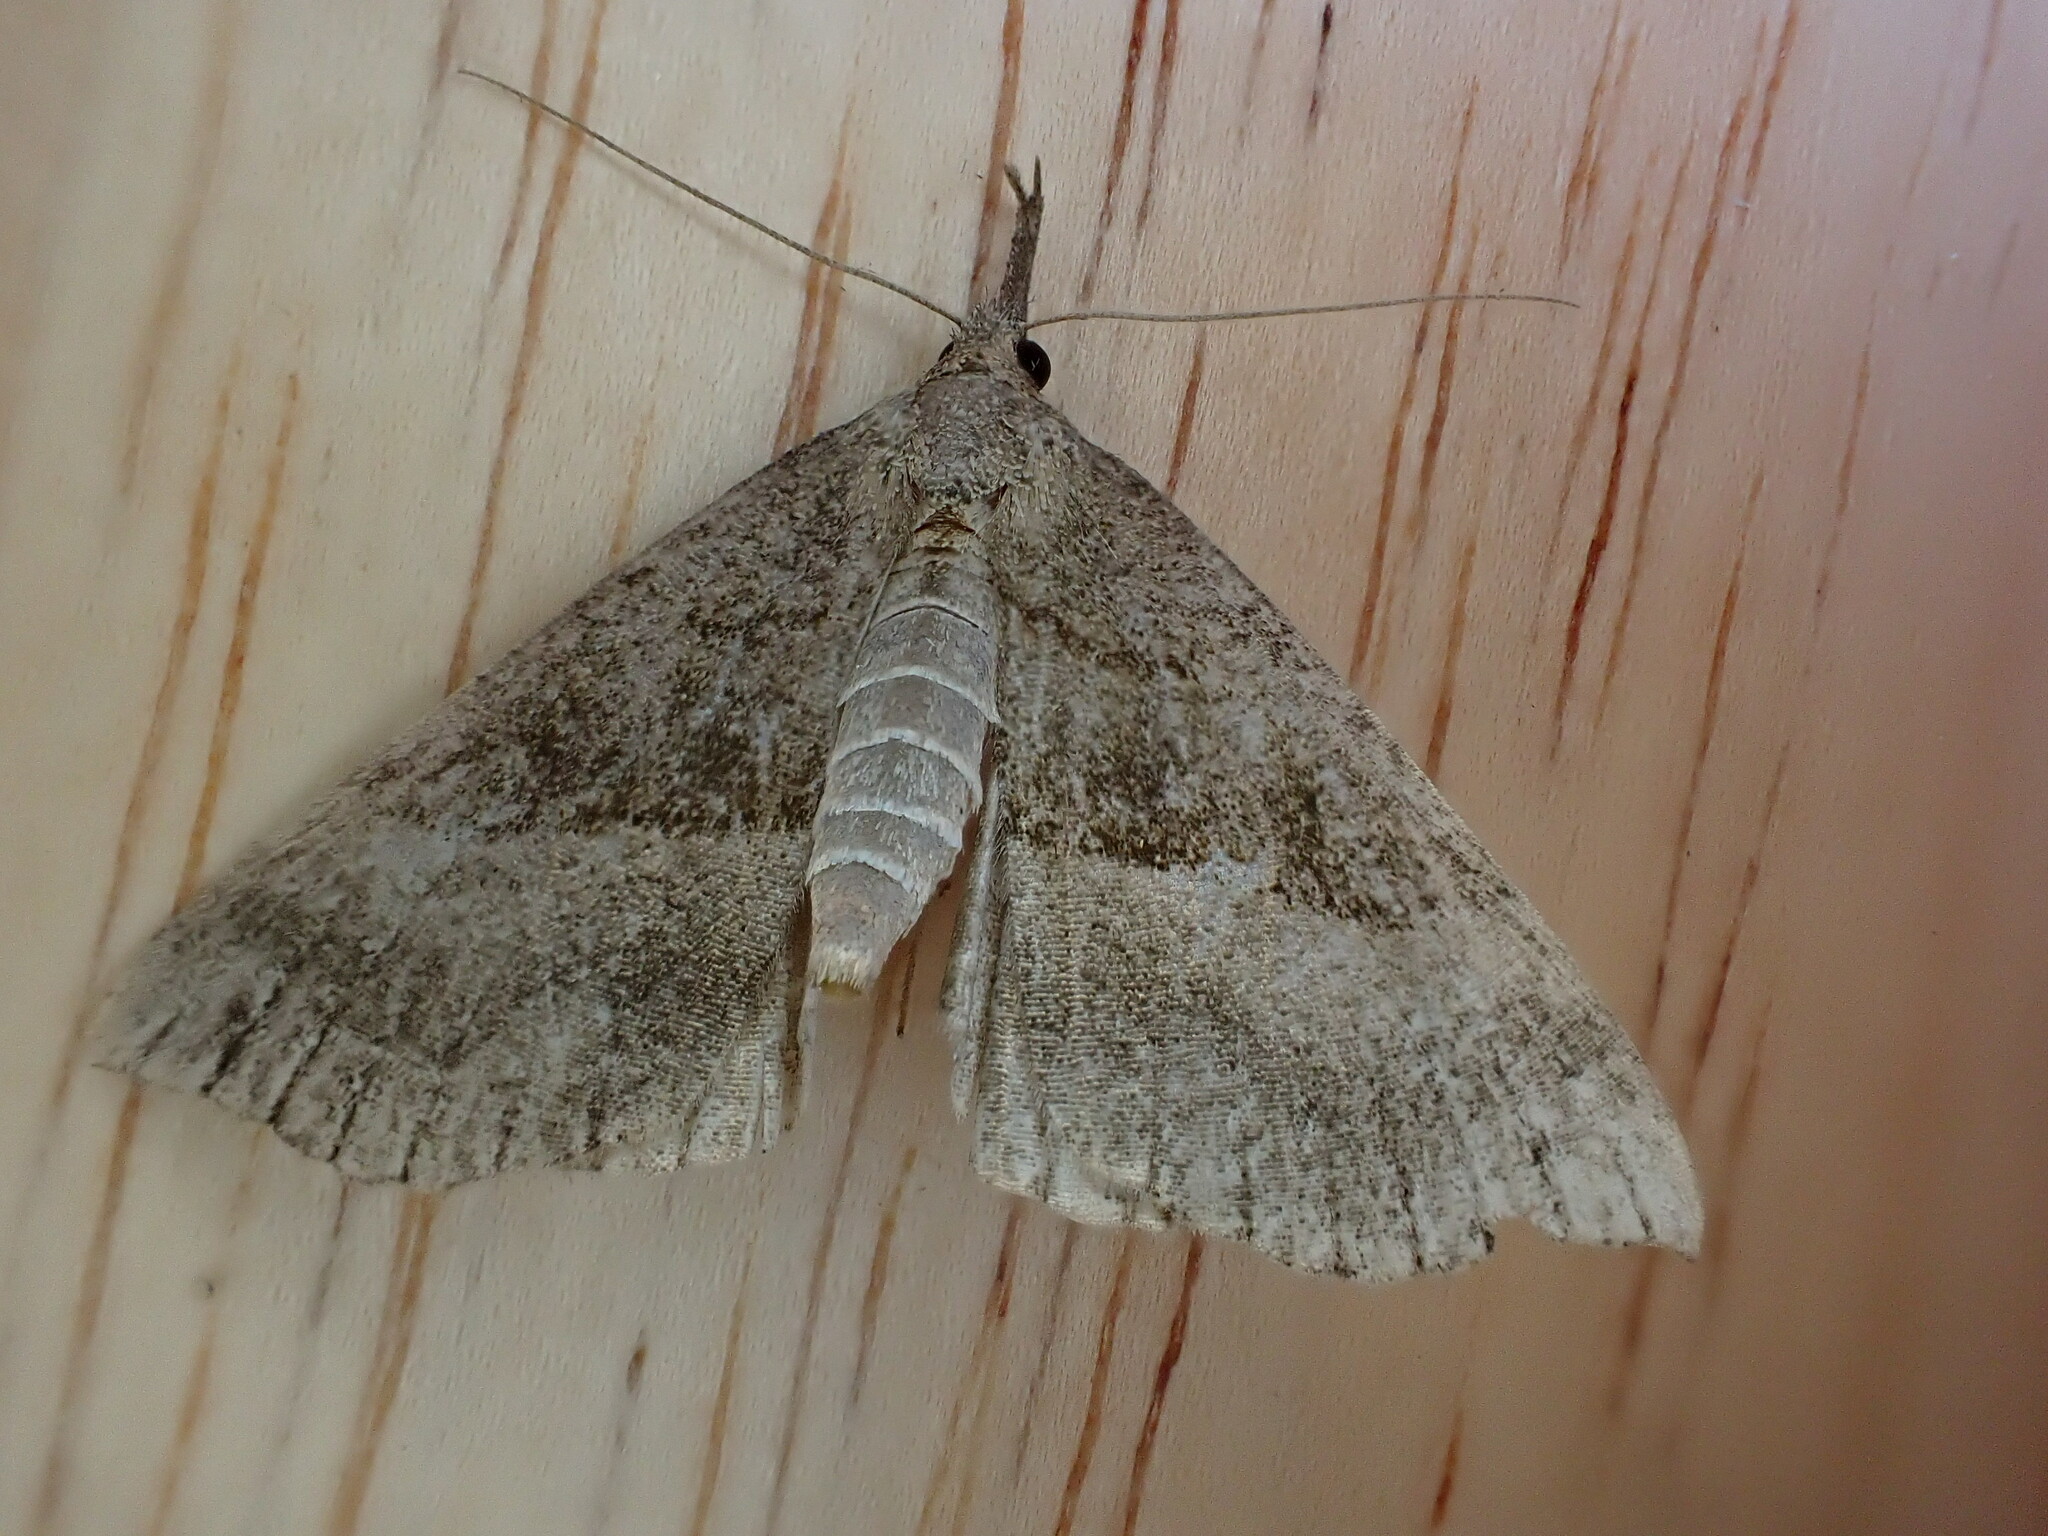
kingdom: Animalia
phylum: Arthropoda
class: Insecta
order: Lepidoptera
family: Erebidae
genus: Hypena
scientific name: Hypena proboscidalis
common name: Snout
